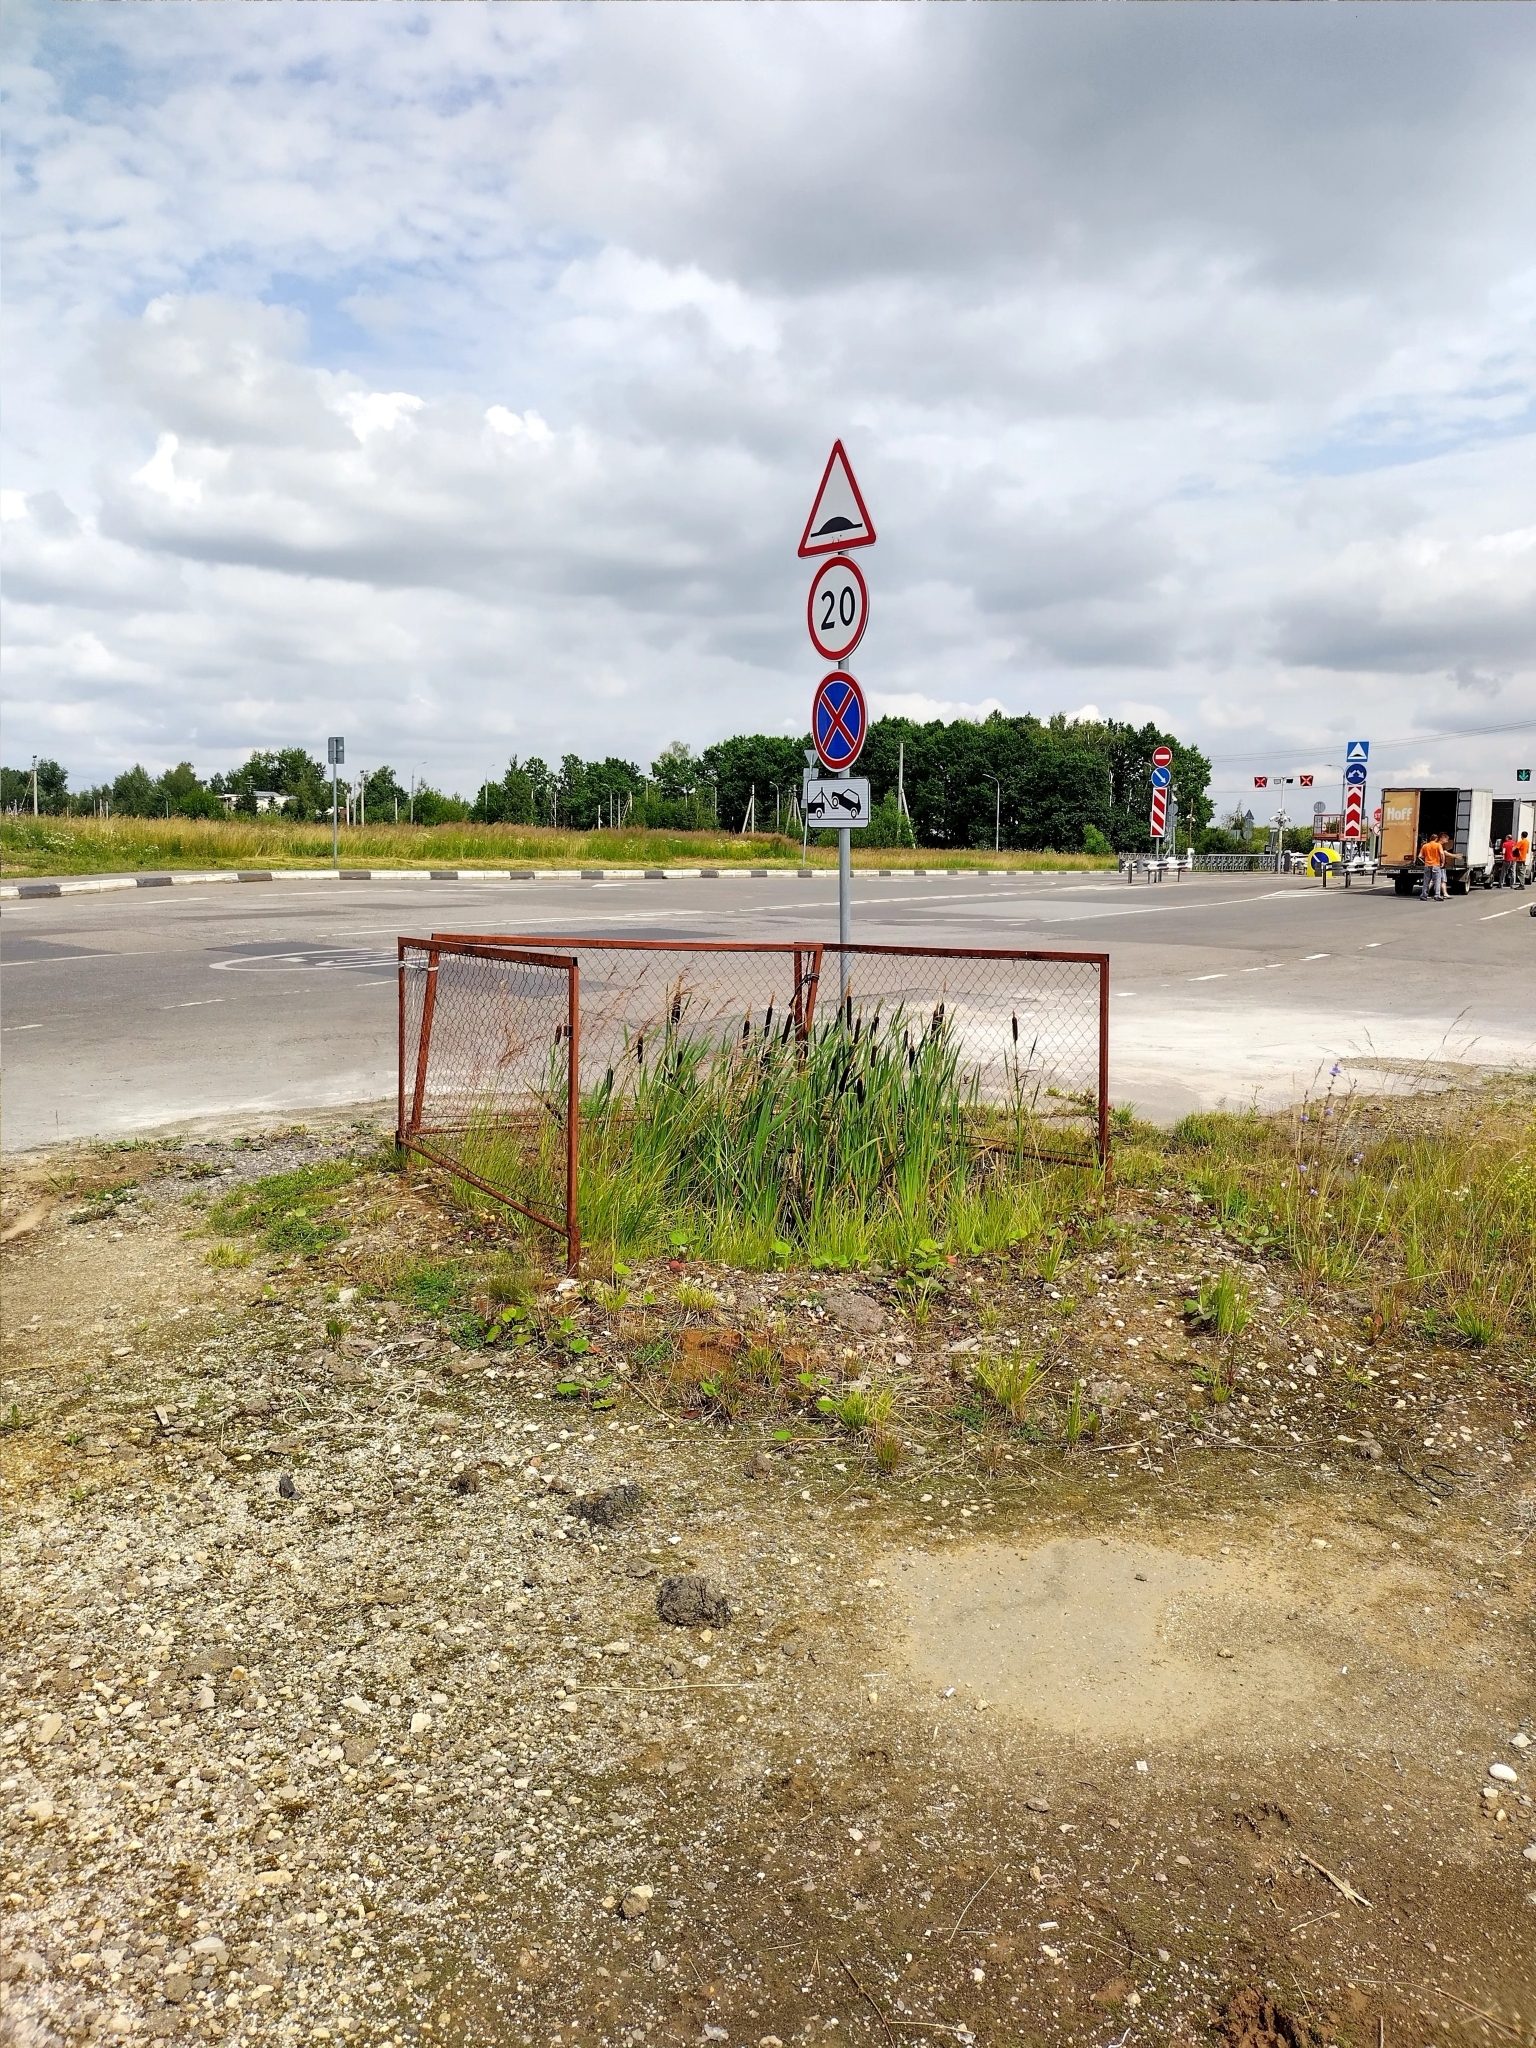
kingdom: Plantae
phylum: Tracheophyta
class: Liliopsida
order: Poales
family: Typhaceae
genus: Typha
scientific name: Typha latifolia
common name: Broadleaf cattail
